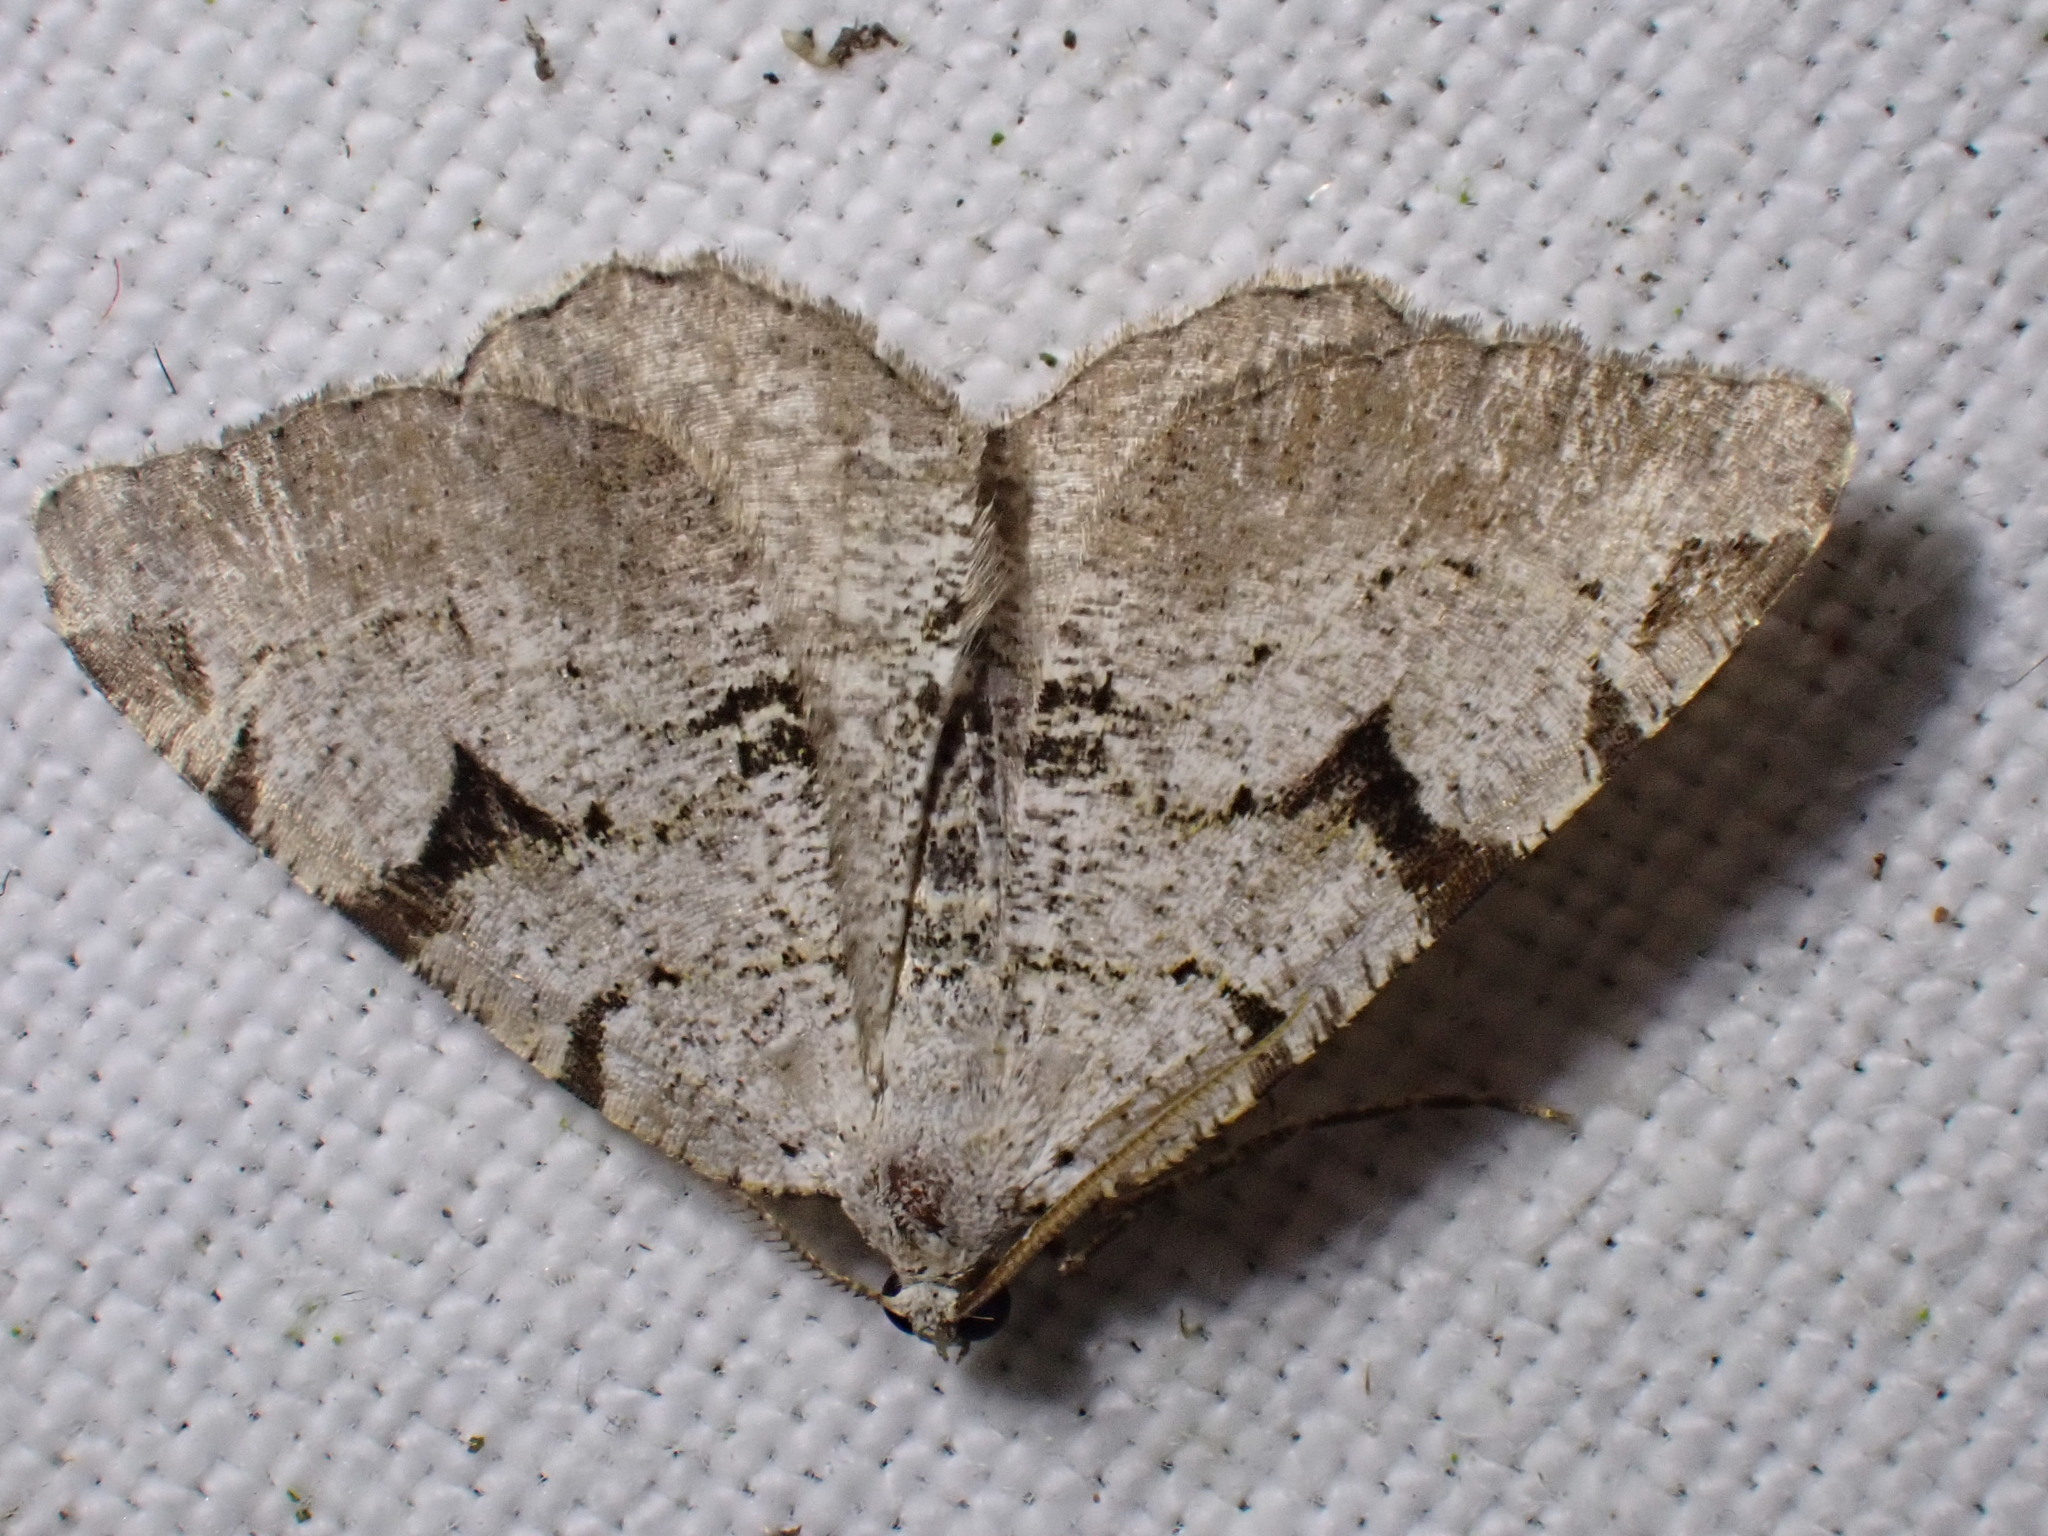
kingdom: Animalia
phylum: Arthropoda
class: Insecta
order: Lepidoptera
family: Geometridae
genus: Macaria
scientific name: Macaria wauaria
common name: V-moth
